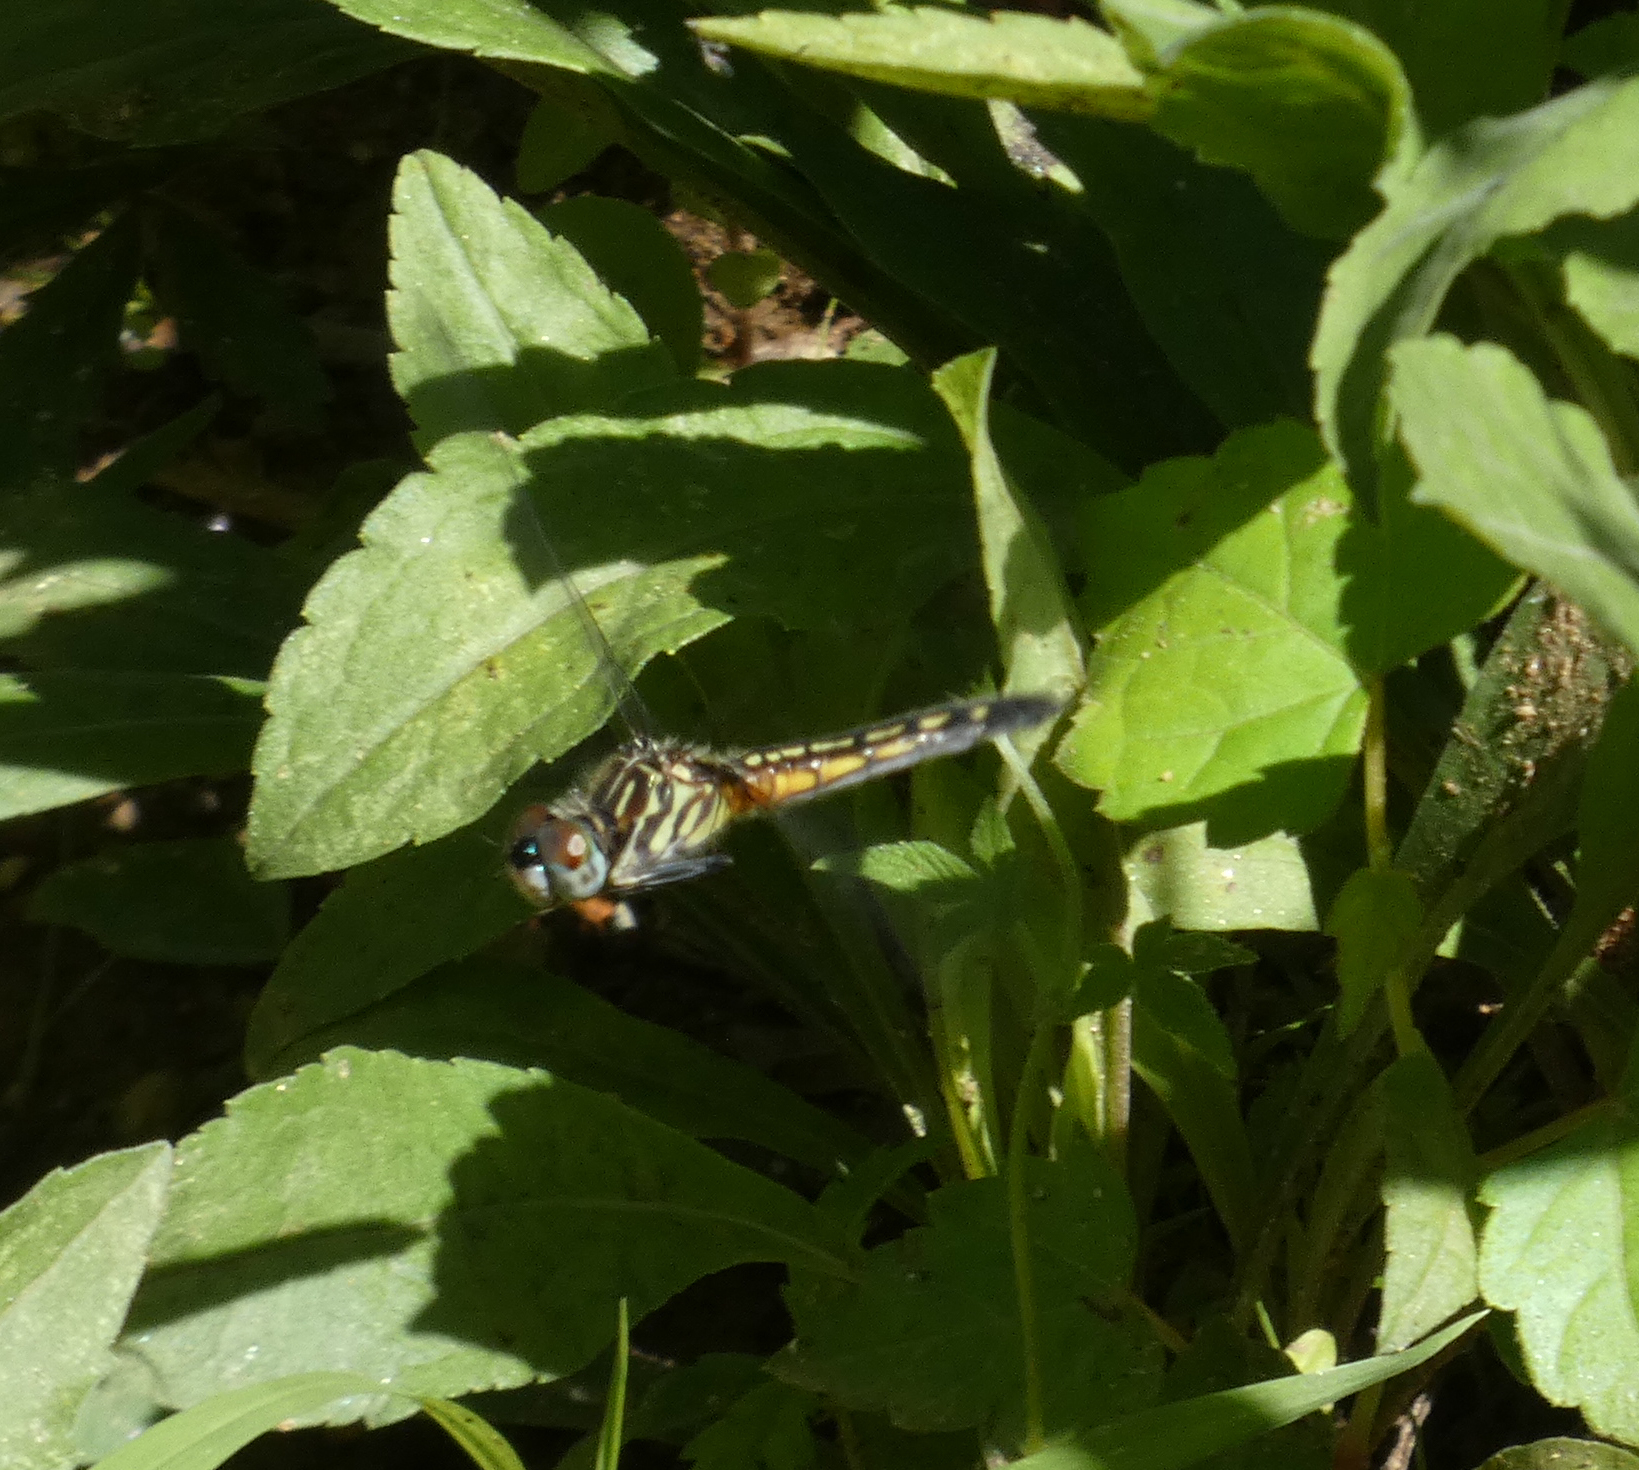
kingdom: Animalia
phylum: Arthropoda
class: Insecta
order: Odonata
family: Libellulidae
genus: Pachydiplax
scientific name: Pachydiplax longipennis
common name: Blue dasher
